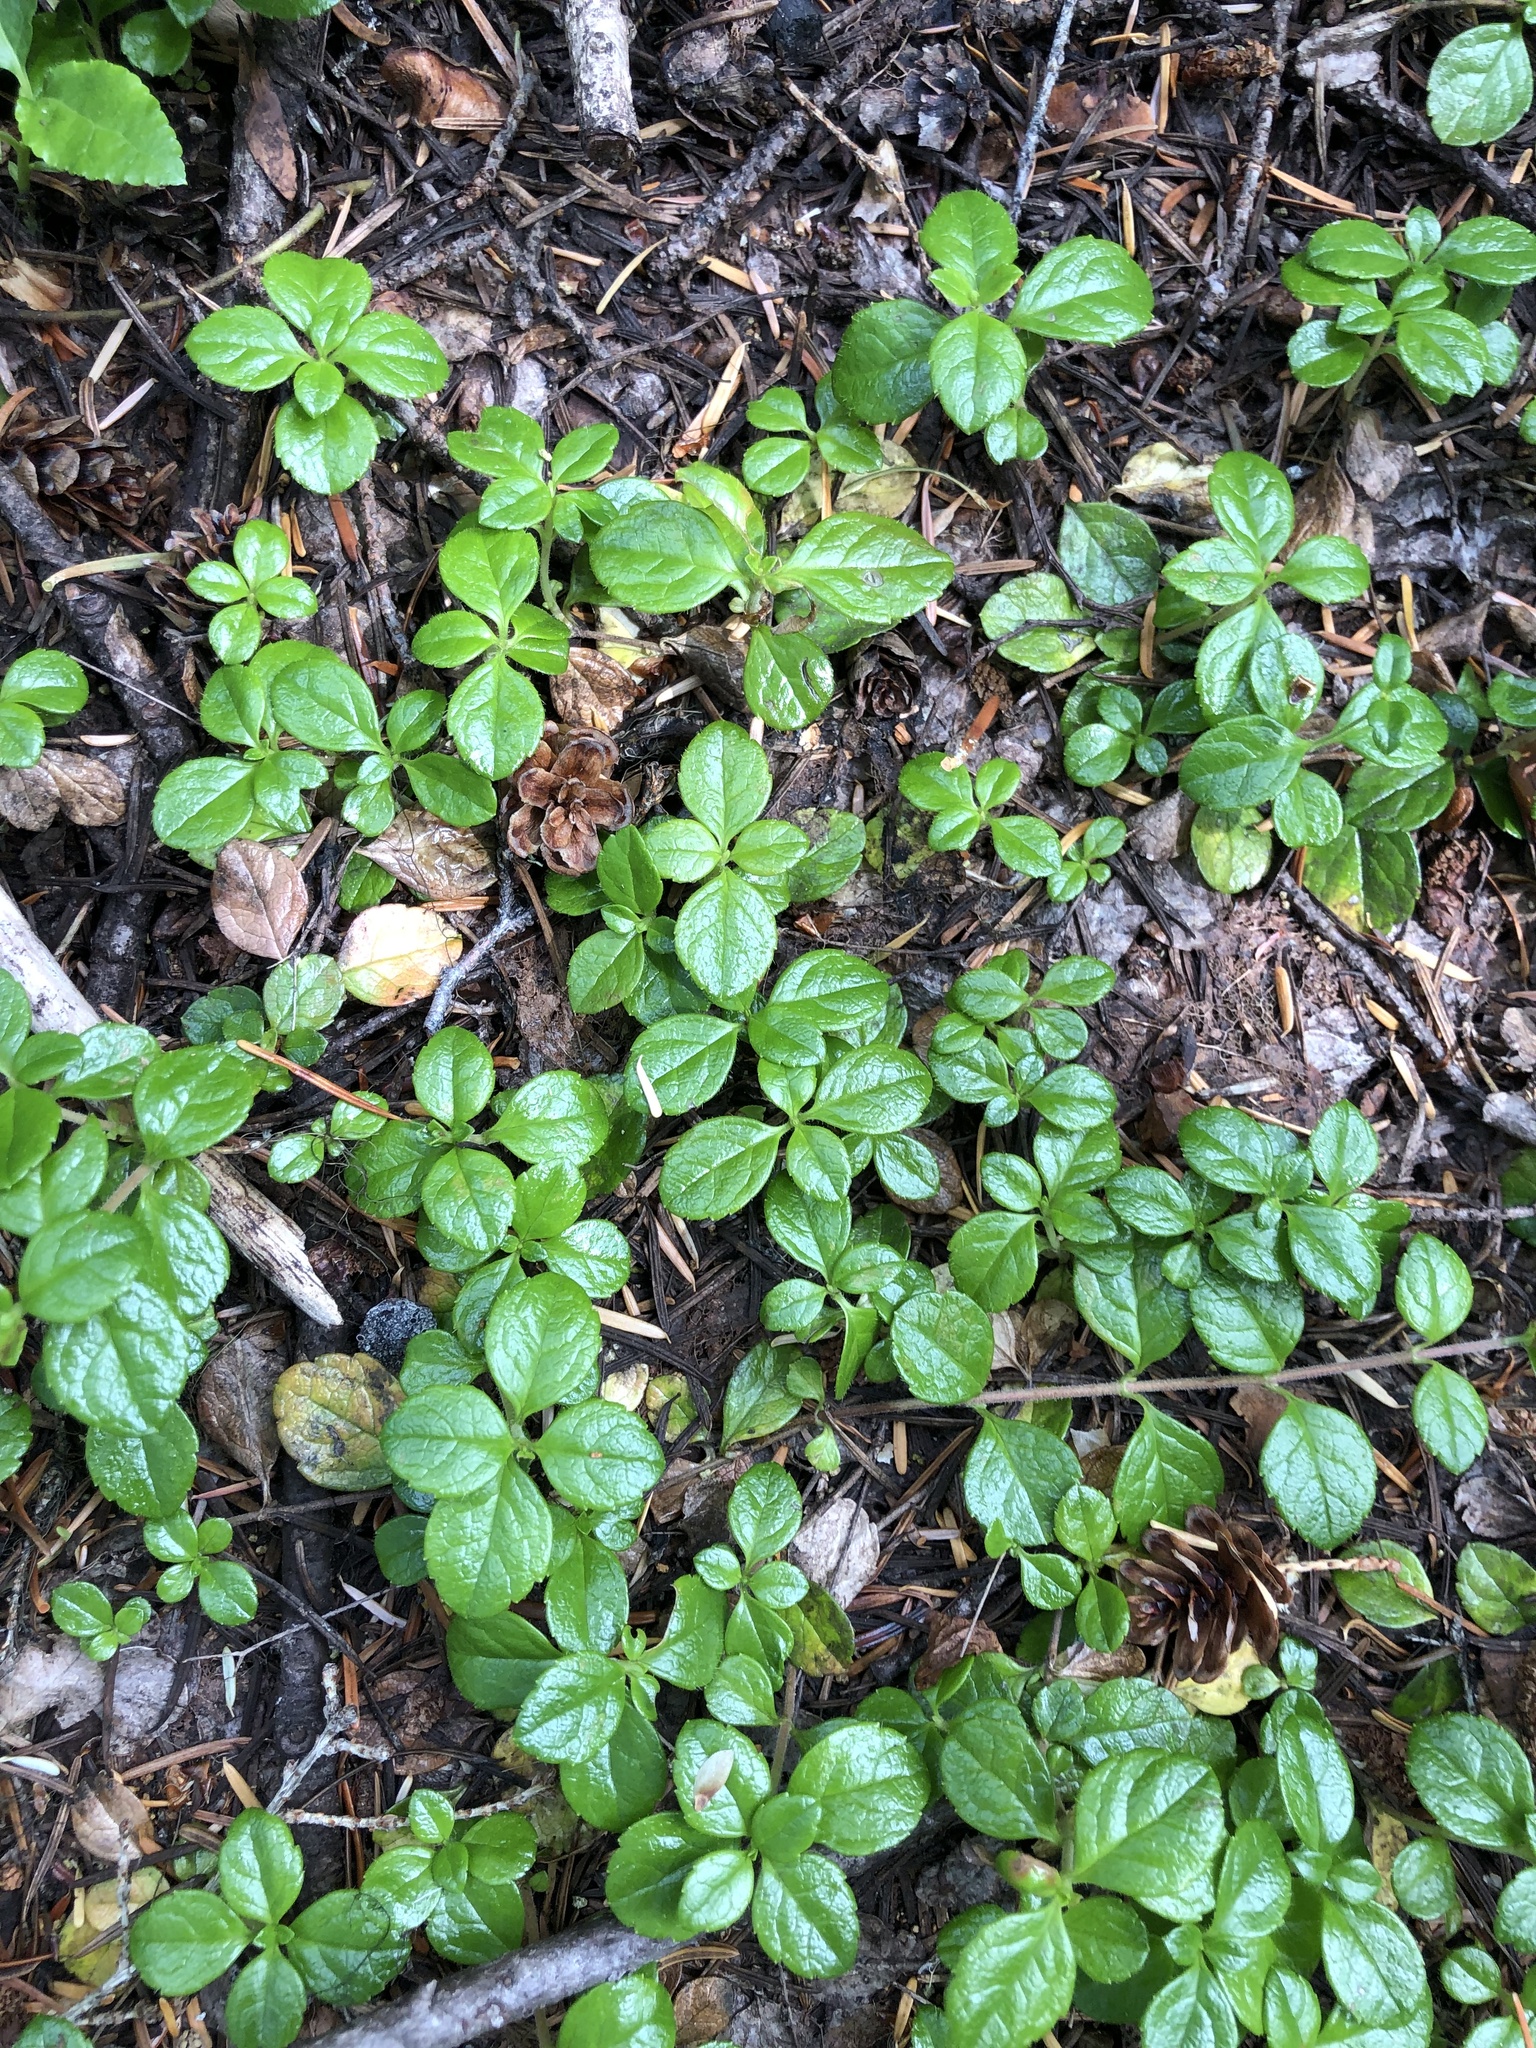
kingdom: Plantae
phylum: Tracheophyta
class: Magnoliopsida
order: Dipsacales
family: Caprifoliaceae
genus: Linnaea
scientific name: Linnaea borealis
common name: Twinflower
